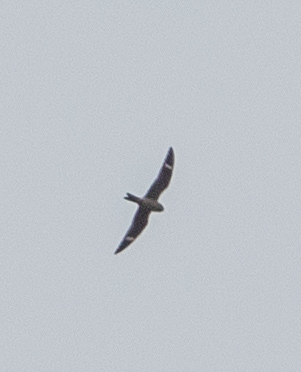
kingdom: Animalia
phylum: Chordata
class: Aves
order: Caprimulgiformes
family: Caprimulgidae
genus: Chordeiles
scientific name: Chordeiles minor
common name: Common nighthawk
